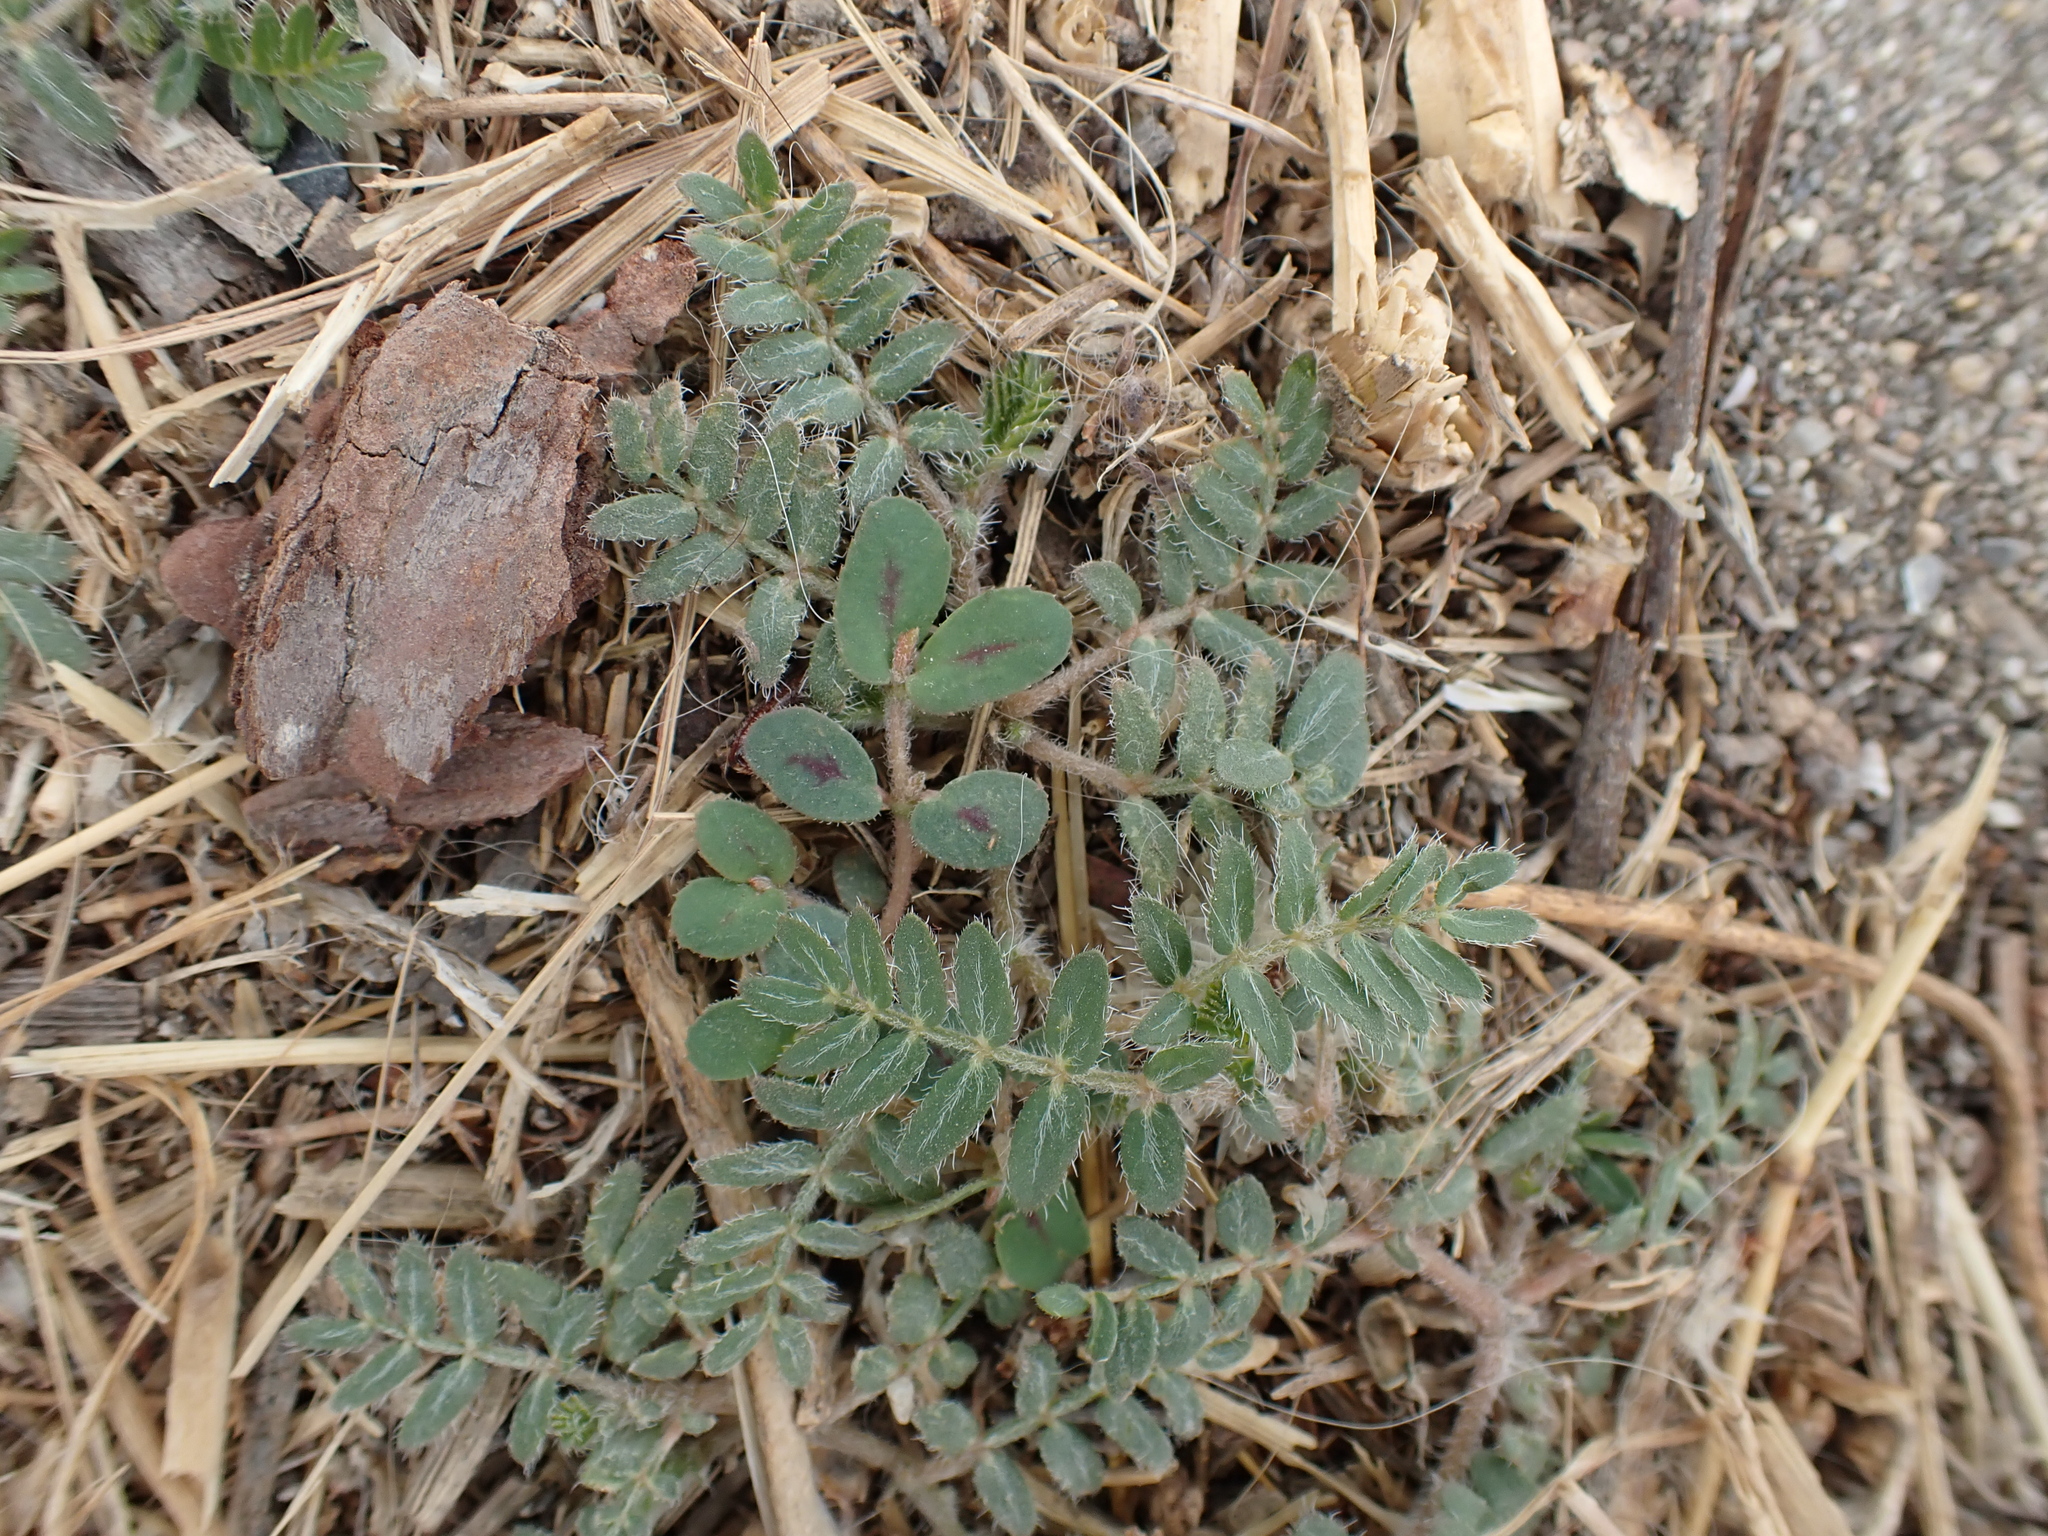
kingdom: Plantae
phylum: Tracheophyta
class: Magnoliopsida
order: Zygophyllales
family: Zygophyllaceae
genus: Tribulus
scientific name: Tribulus terrestris
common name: Puncturevine
